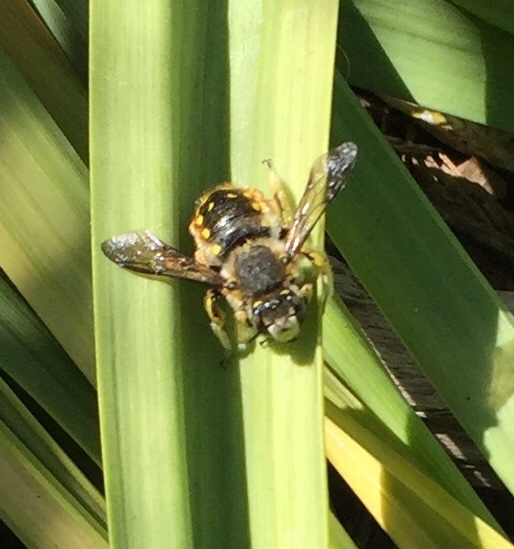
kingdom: Animalia
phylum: Arthropoda
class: Insecta
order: Hymenoptera
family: Megachilidae
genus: Anthidium
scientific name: Anthidium manicatum
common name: Wool carder bee
